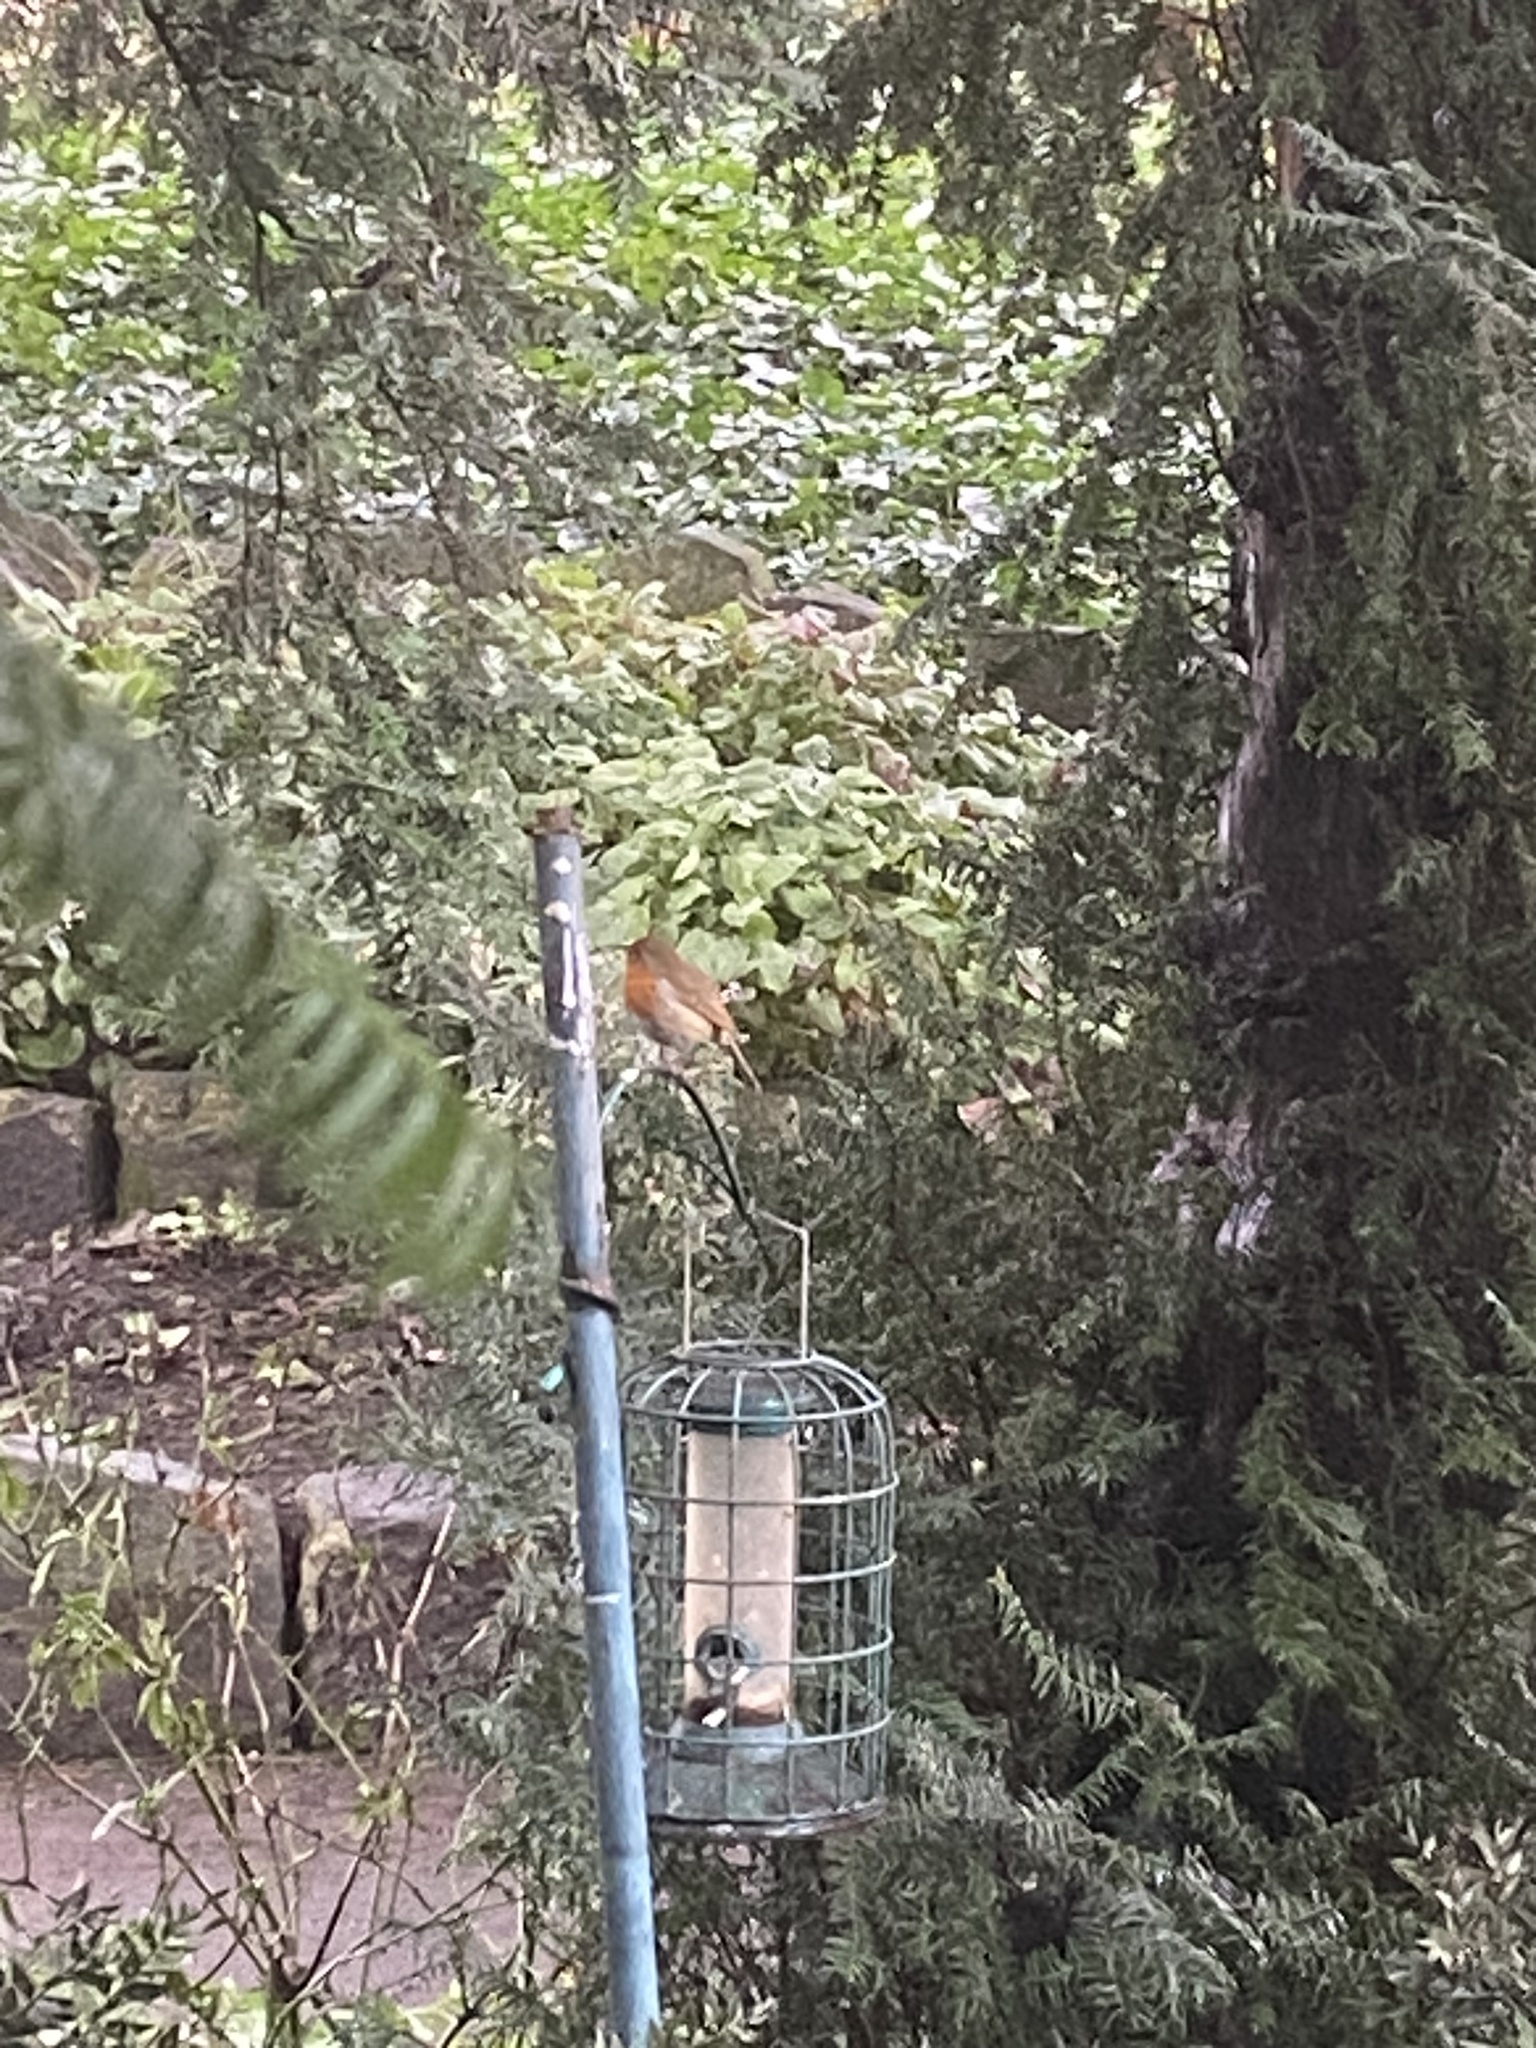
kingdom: Animalia
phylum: Chordata
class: Aves
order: Passeriformes
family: Muscicapidae
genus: Erithacus
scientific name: Erithacus rubecula
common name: European robin
